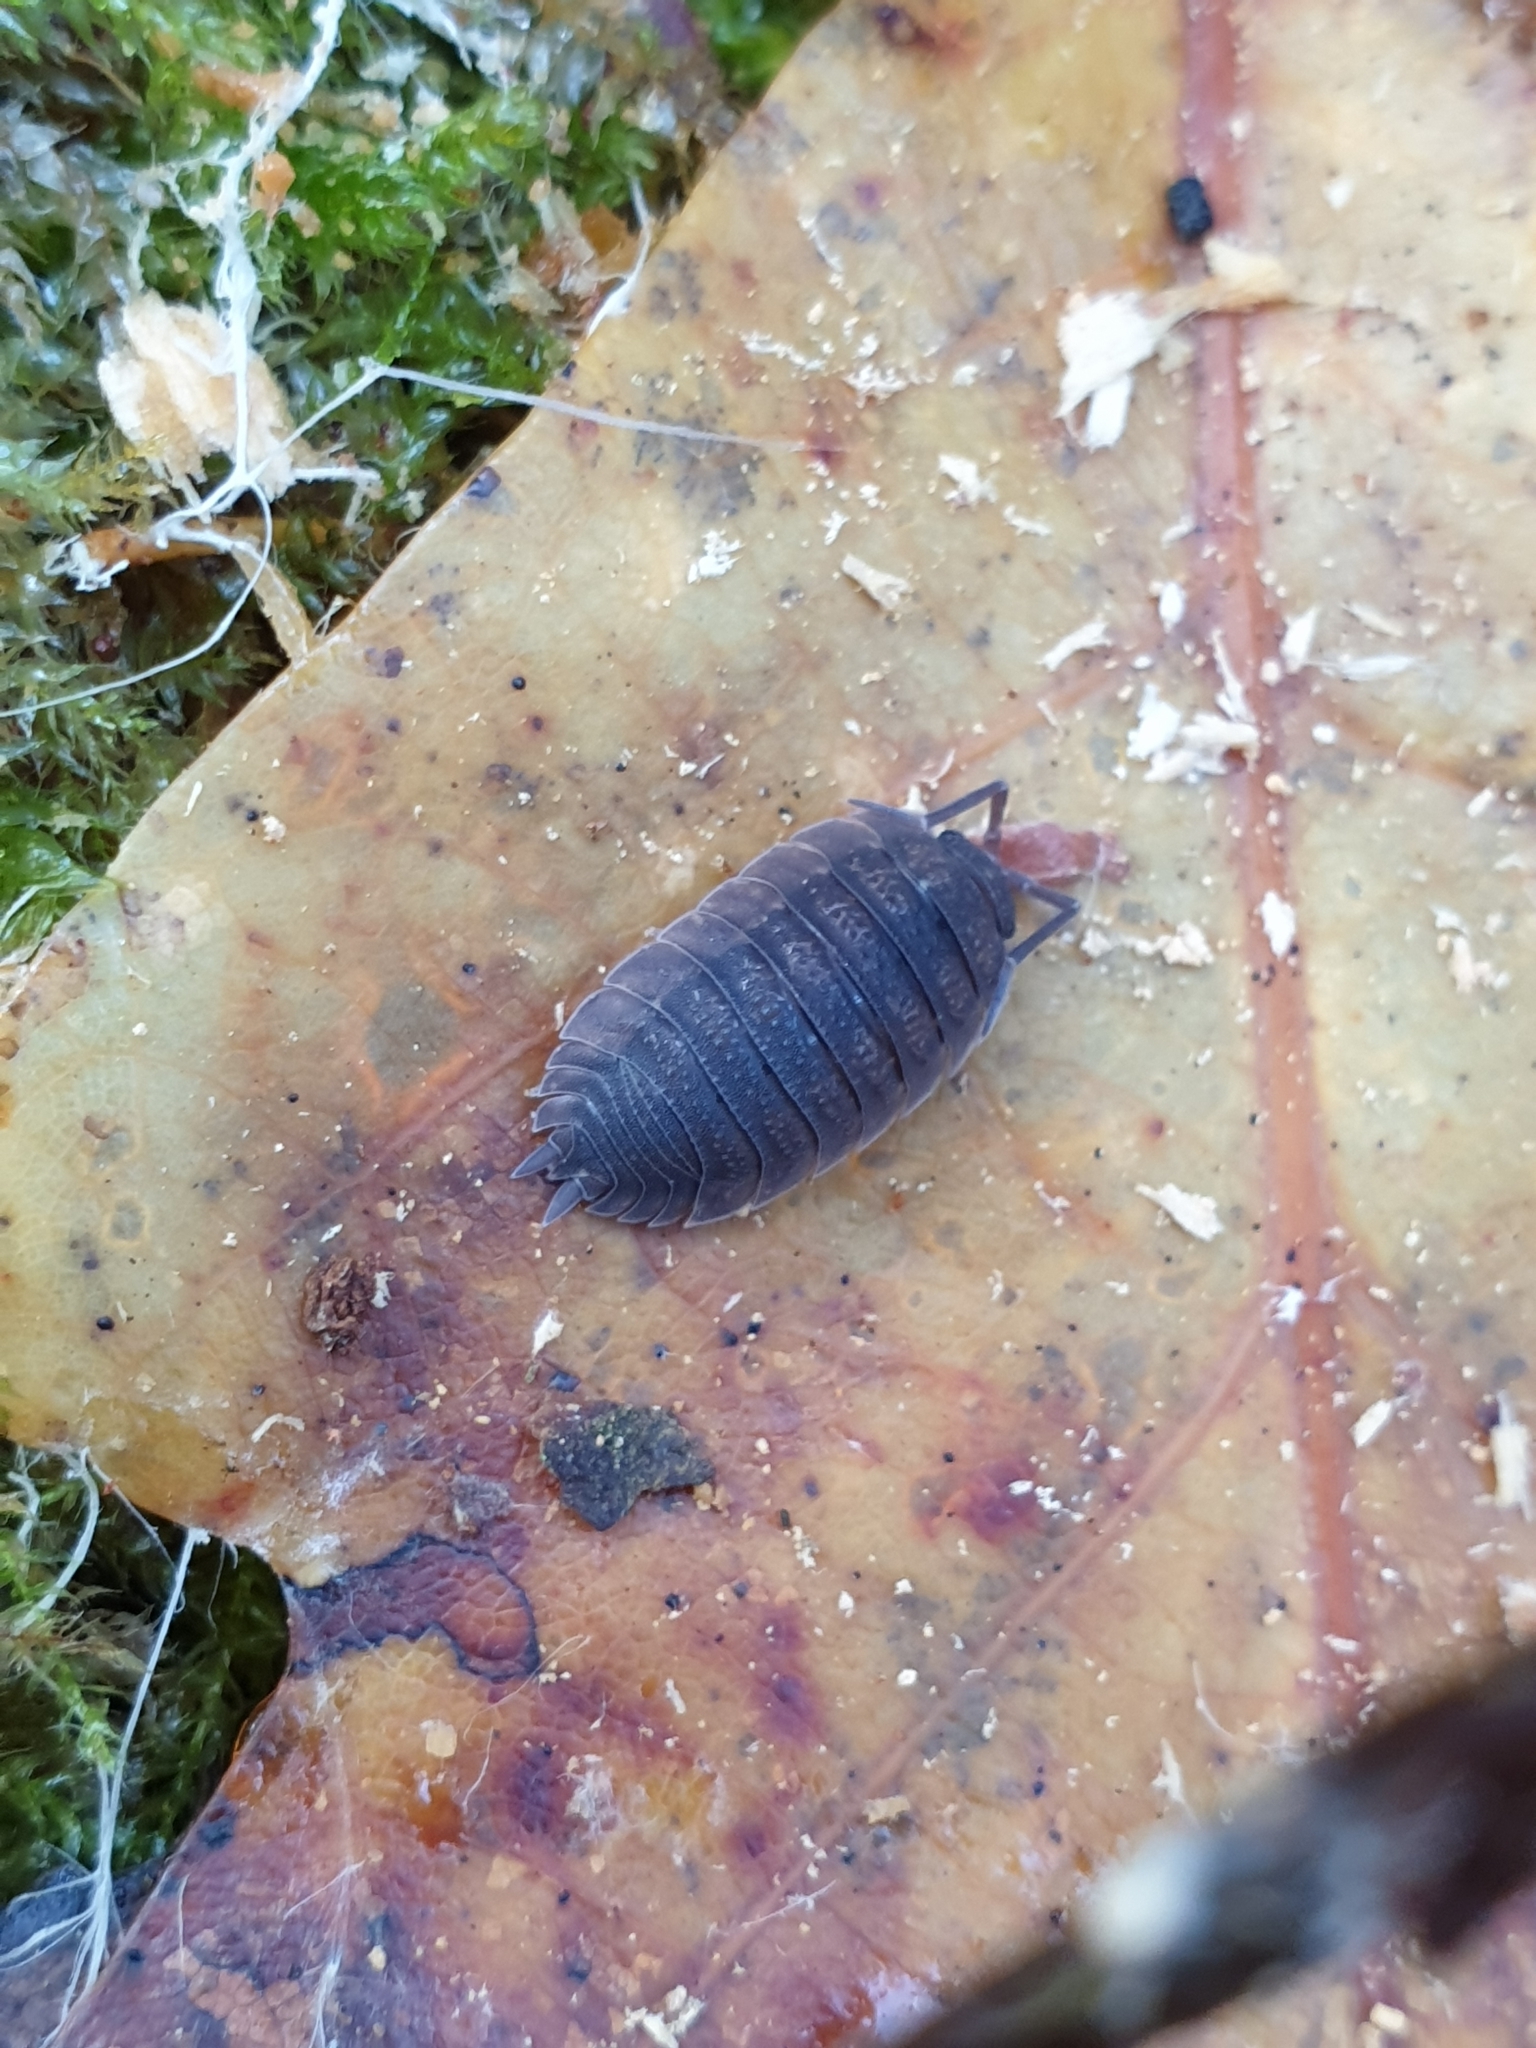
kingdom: Animalia
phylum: Arthropoda
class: Malacostraca
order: Isopoda
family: Porcellionidae
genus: Porcellio
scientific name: Porcellio scaber
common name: Common rough woodlouse
